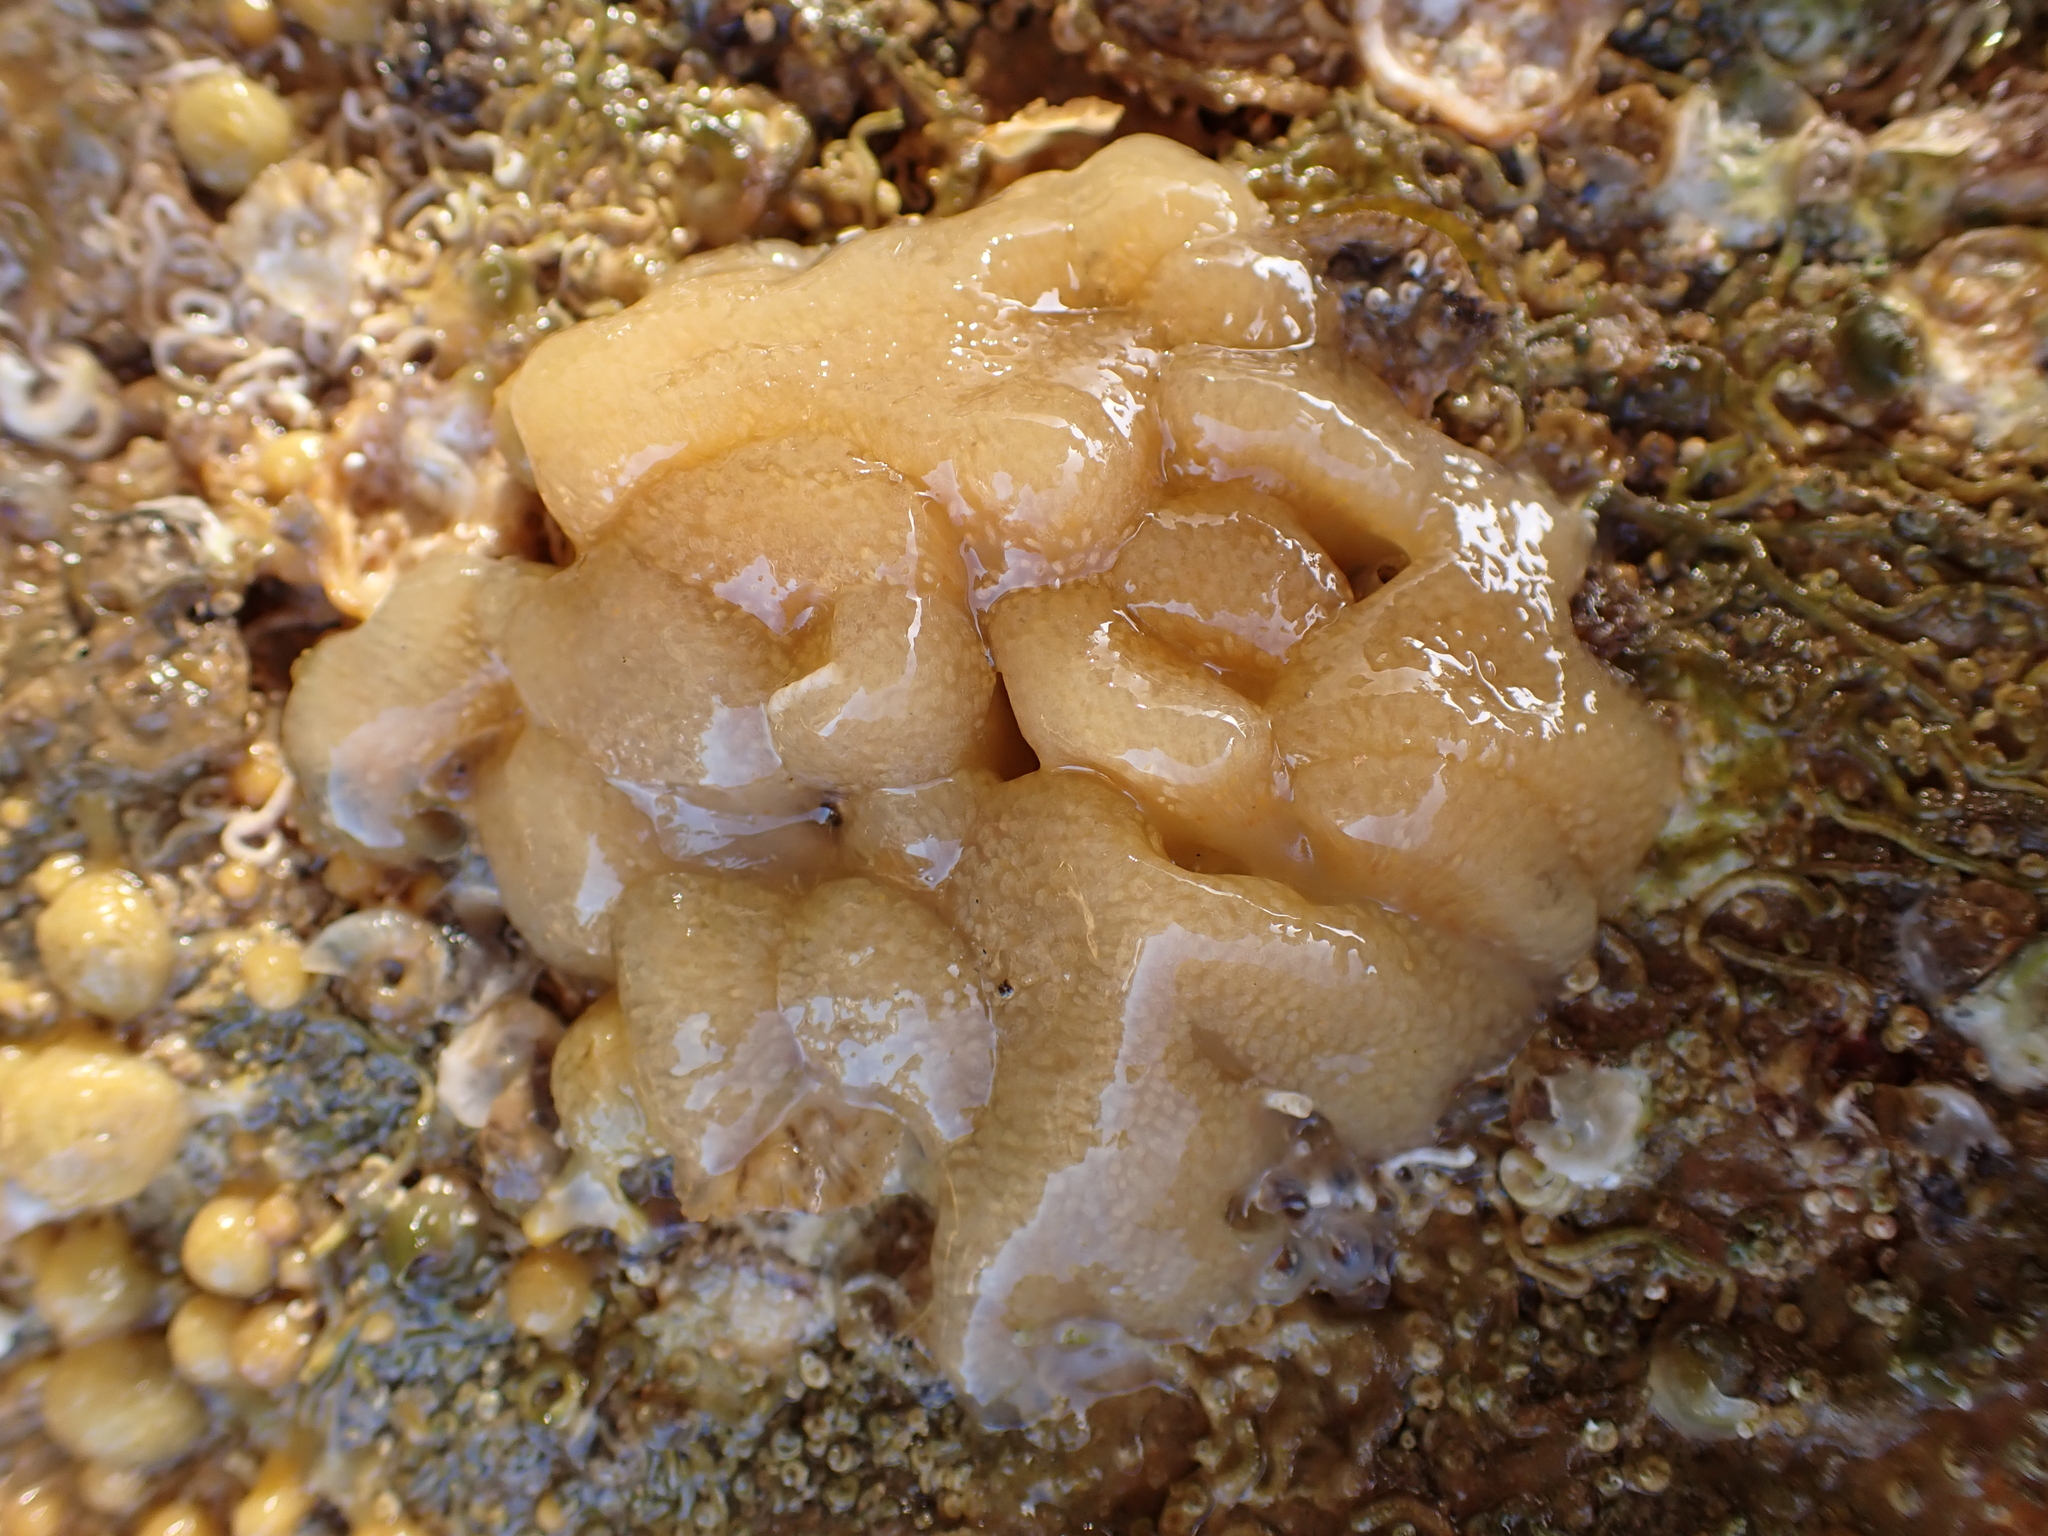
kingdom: Animalia
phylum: Chordata
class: Ascidiacea
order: Aplousobranchia
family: Pseudodistomidae
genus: Pseudodistoma
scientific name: Pseudodistoma opacum
